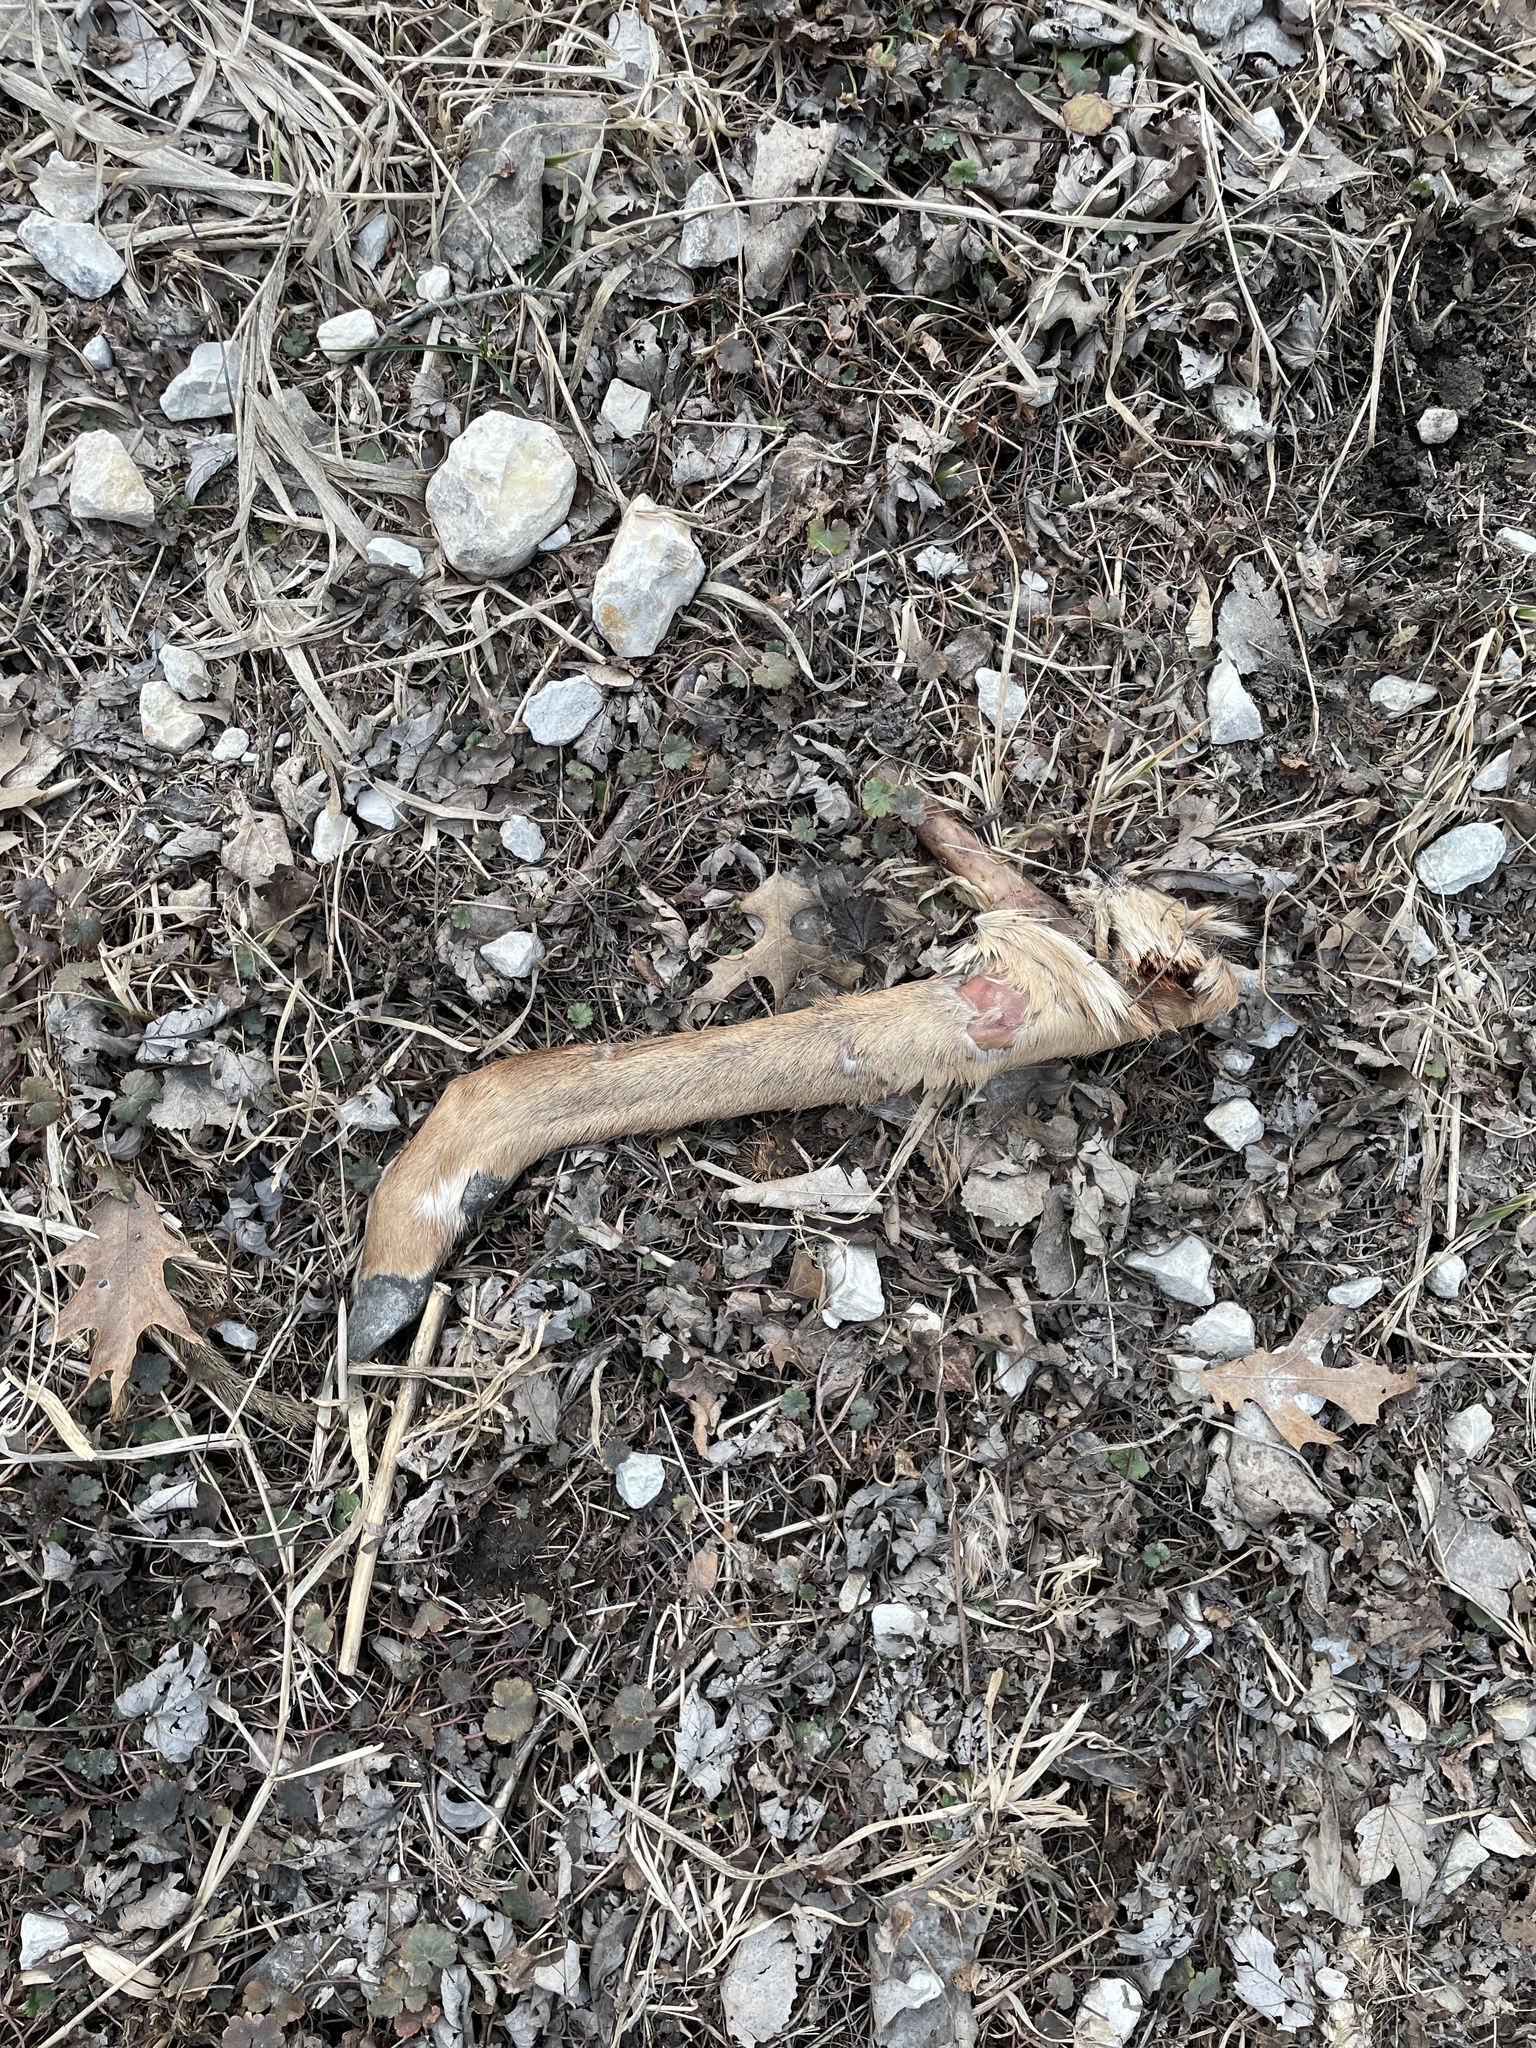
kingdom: Animalia
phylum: Chordata
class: Mammalia
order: Artiodactyla
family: Cervidae
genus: Odocoileus
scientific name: Odocoileus virginianus
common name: White-tailed deer
